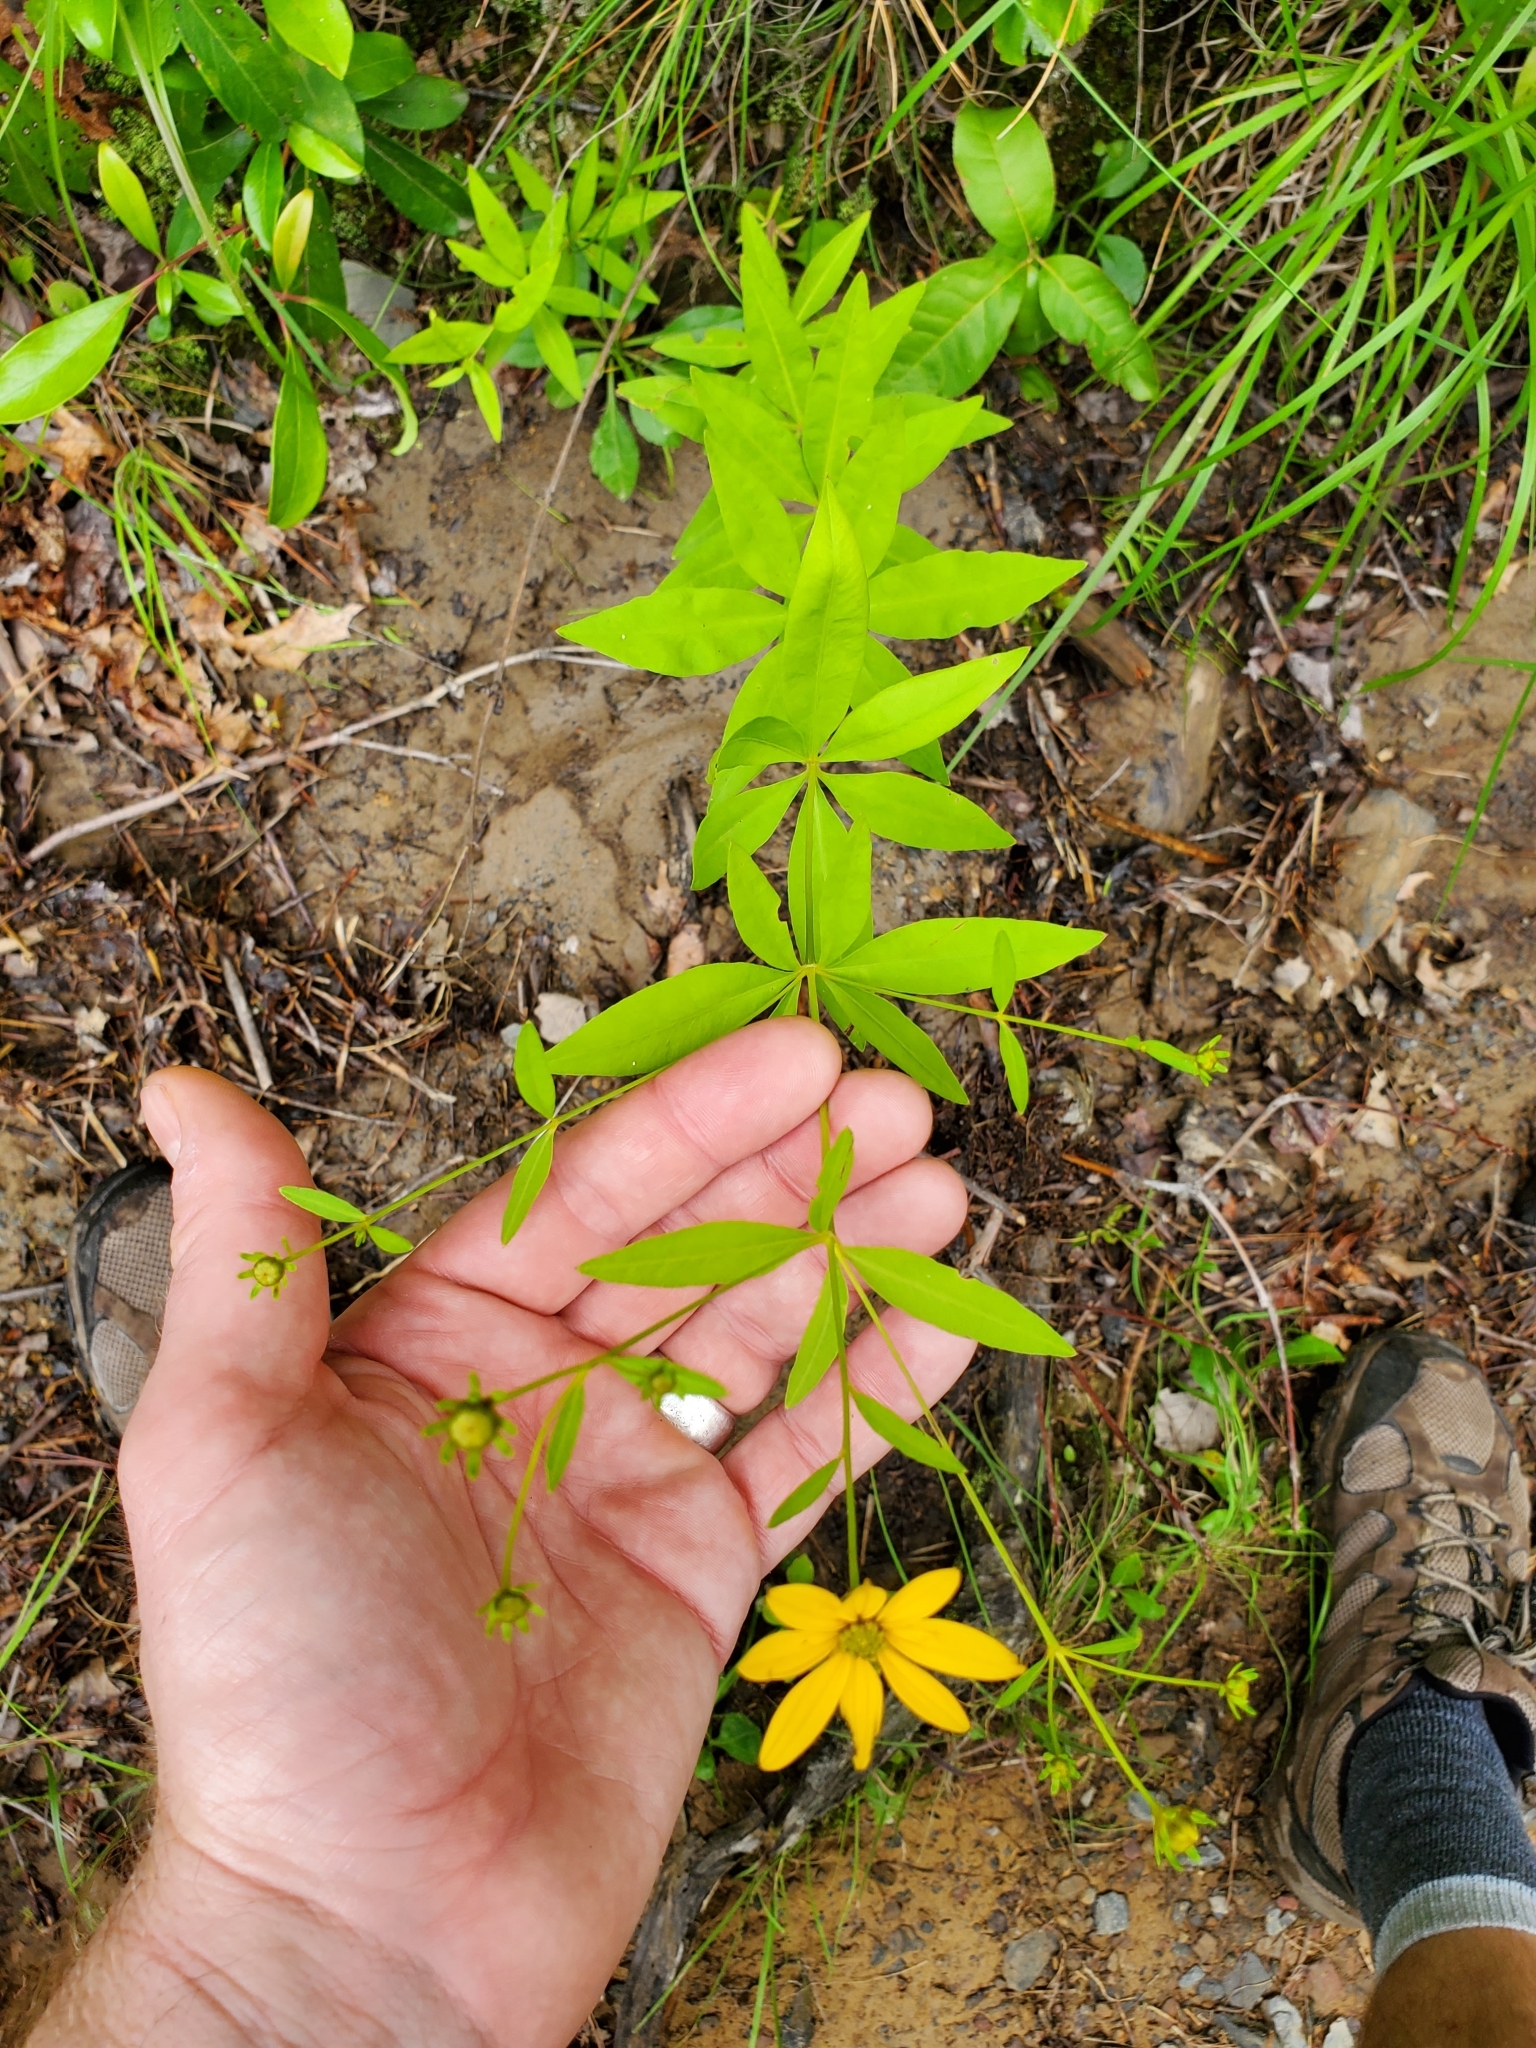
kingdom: Plantae
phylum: Tracheophyta
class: Magnoliopsida
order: Asterales
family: Asteraceae
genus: Coreopsis
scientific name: Coreopsis major
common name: Forest tickseed
